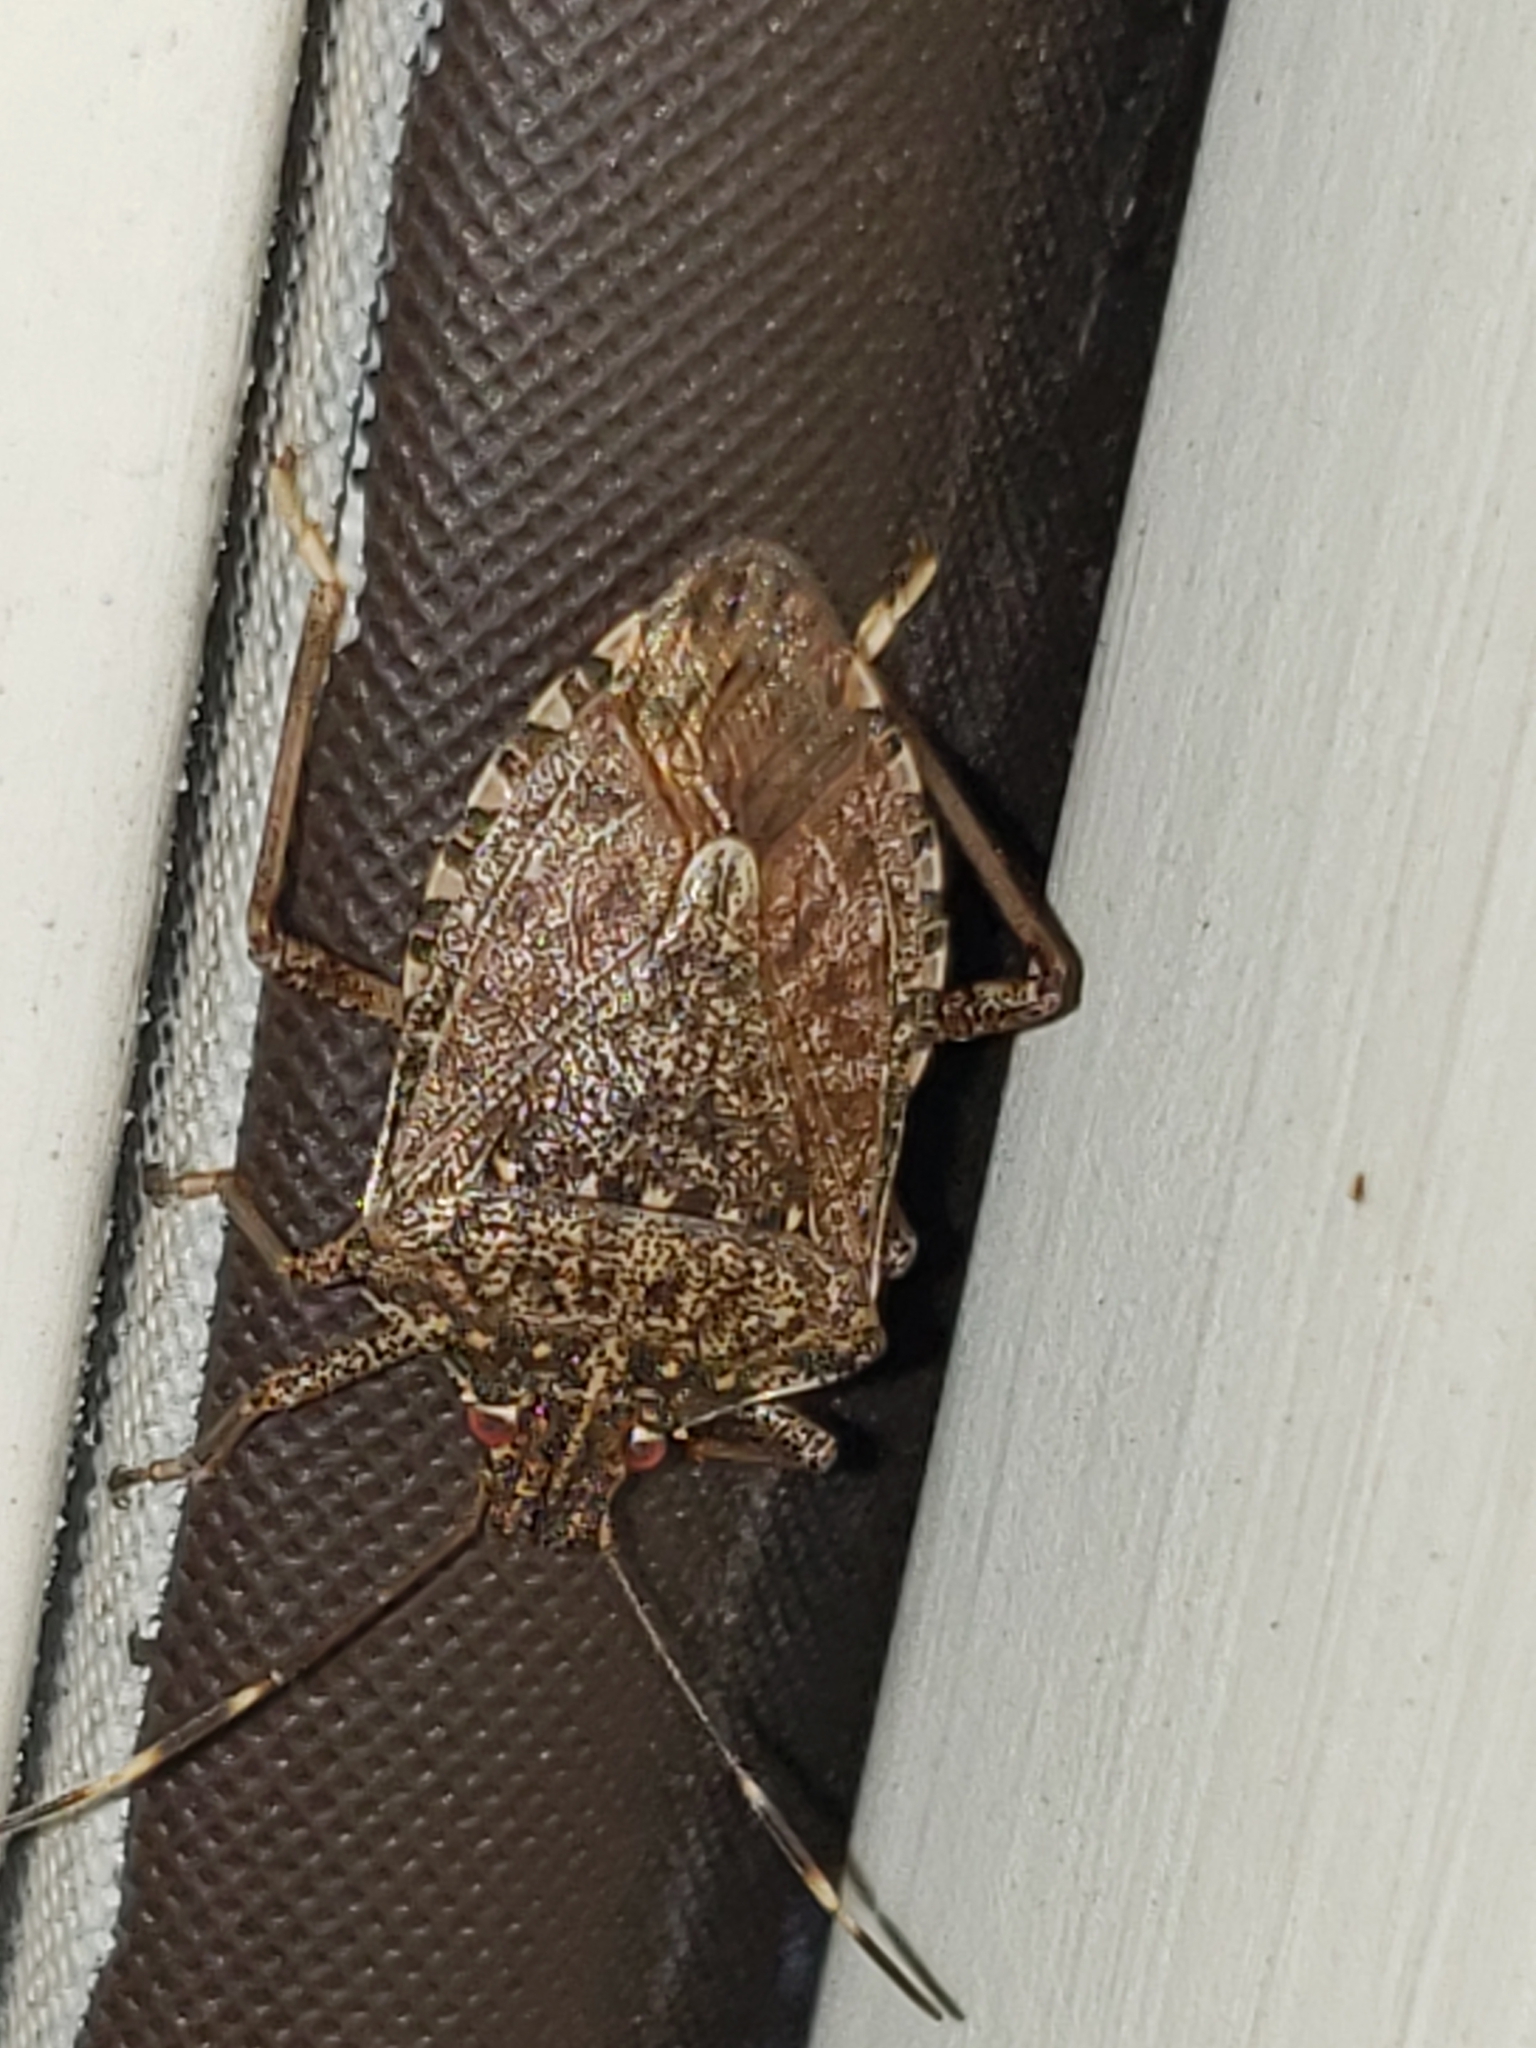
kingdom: Animalia
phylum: Arthropoda
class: Insecta
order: Hemiptera
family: Pentatomidae
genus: Halyomorpha
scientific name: Halyomorpha halys
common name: Brown marmorated stink bug
